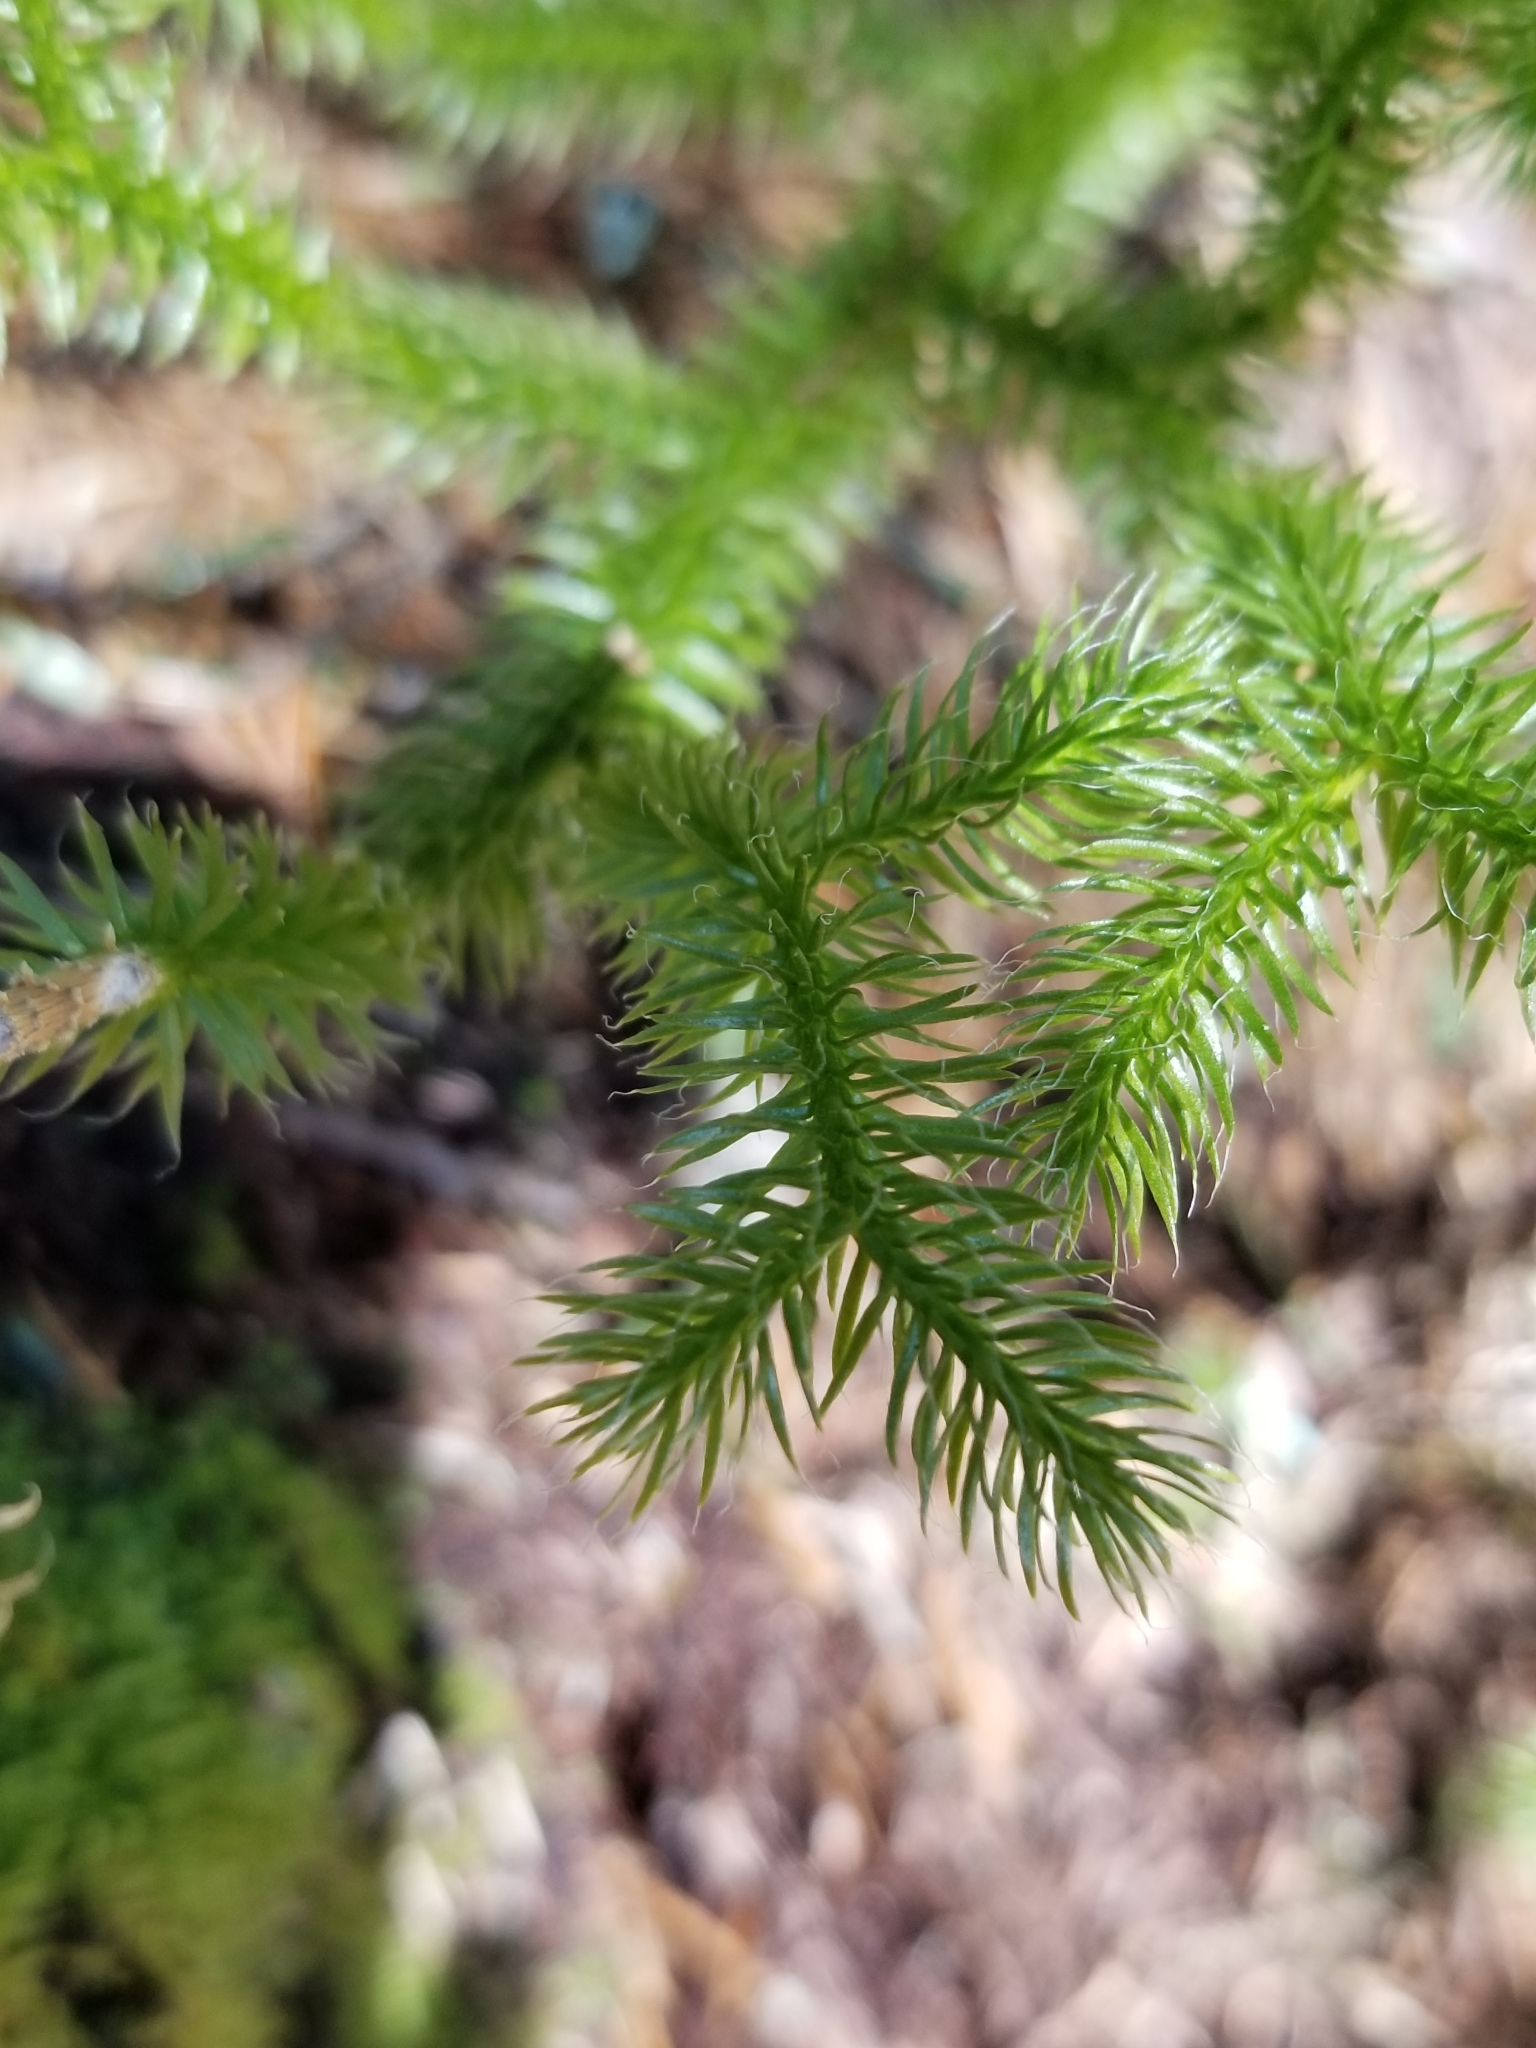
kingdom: Plantae
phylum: Tracheophyta
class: Lycopodiopsida
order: Lycopodiales
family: Lycopodiaceae
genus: Lycopodium
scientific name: Lycopodium clavatum
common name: Stag's-horn clubmoss
